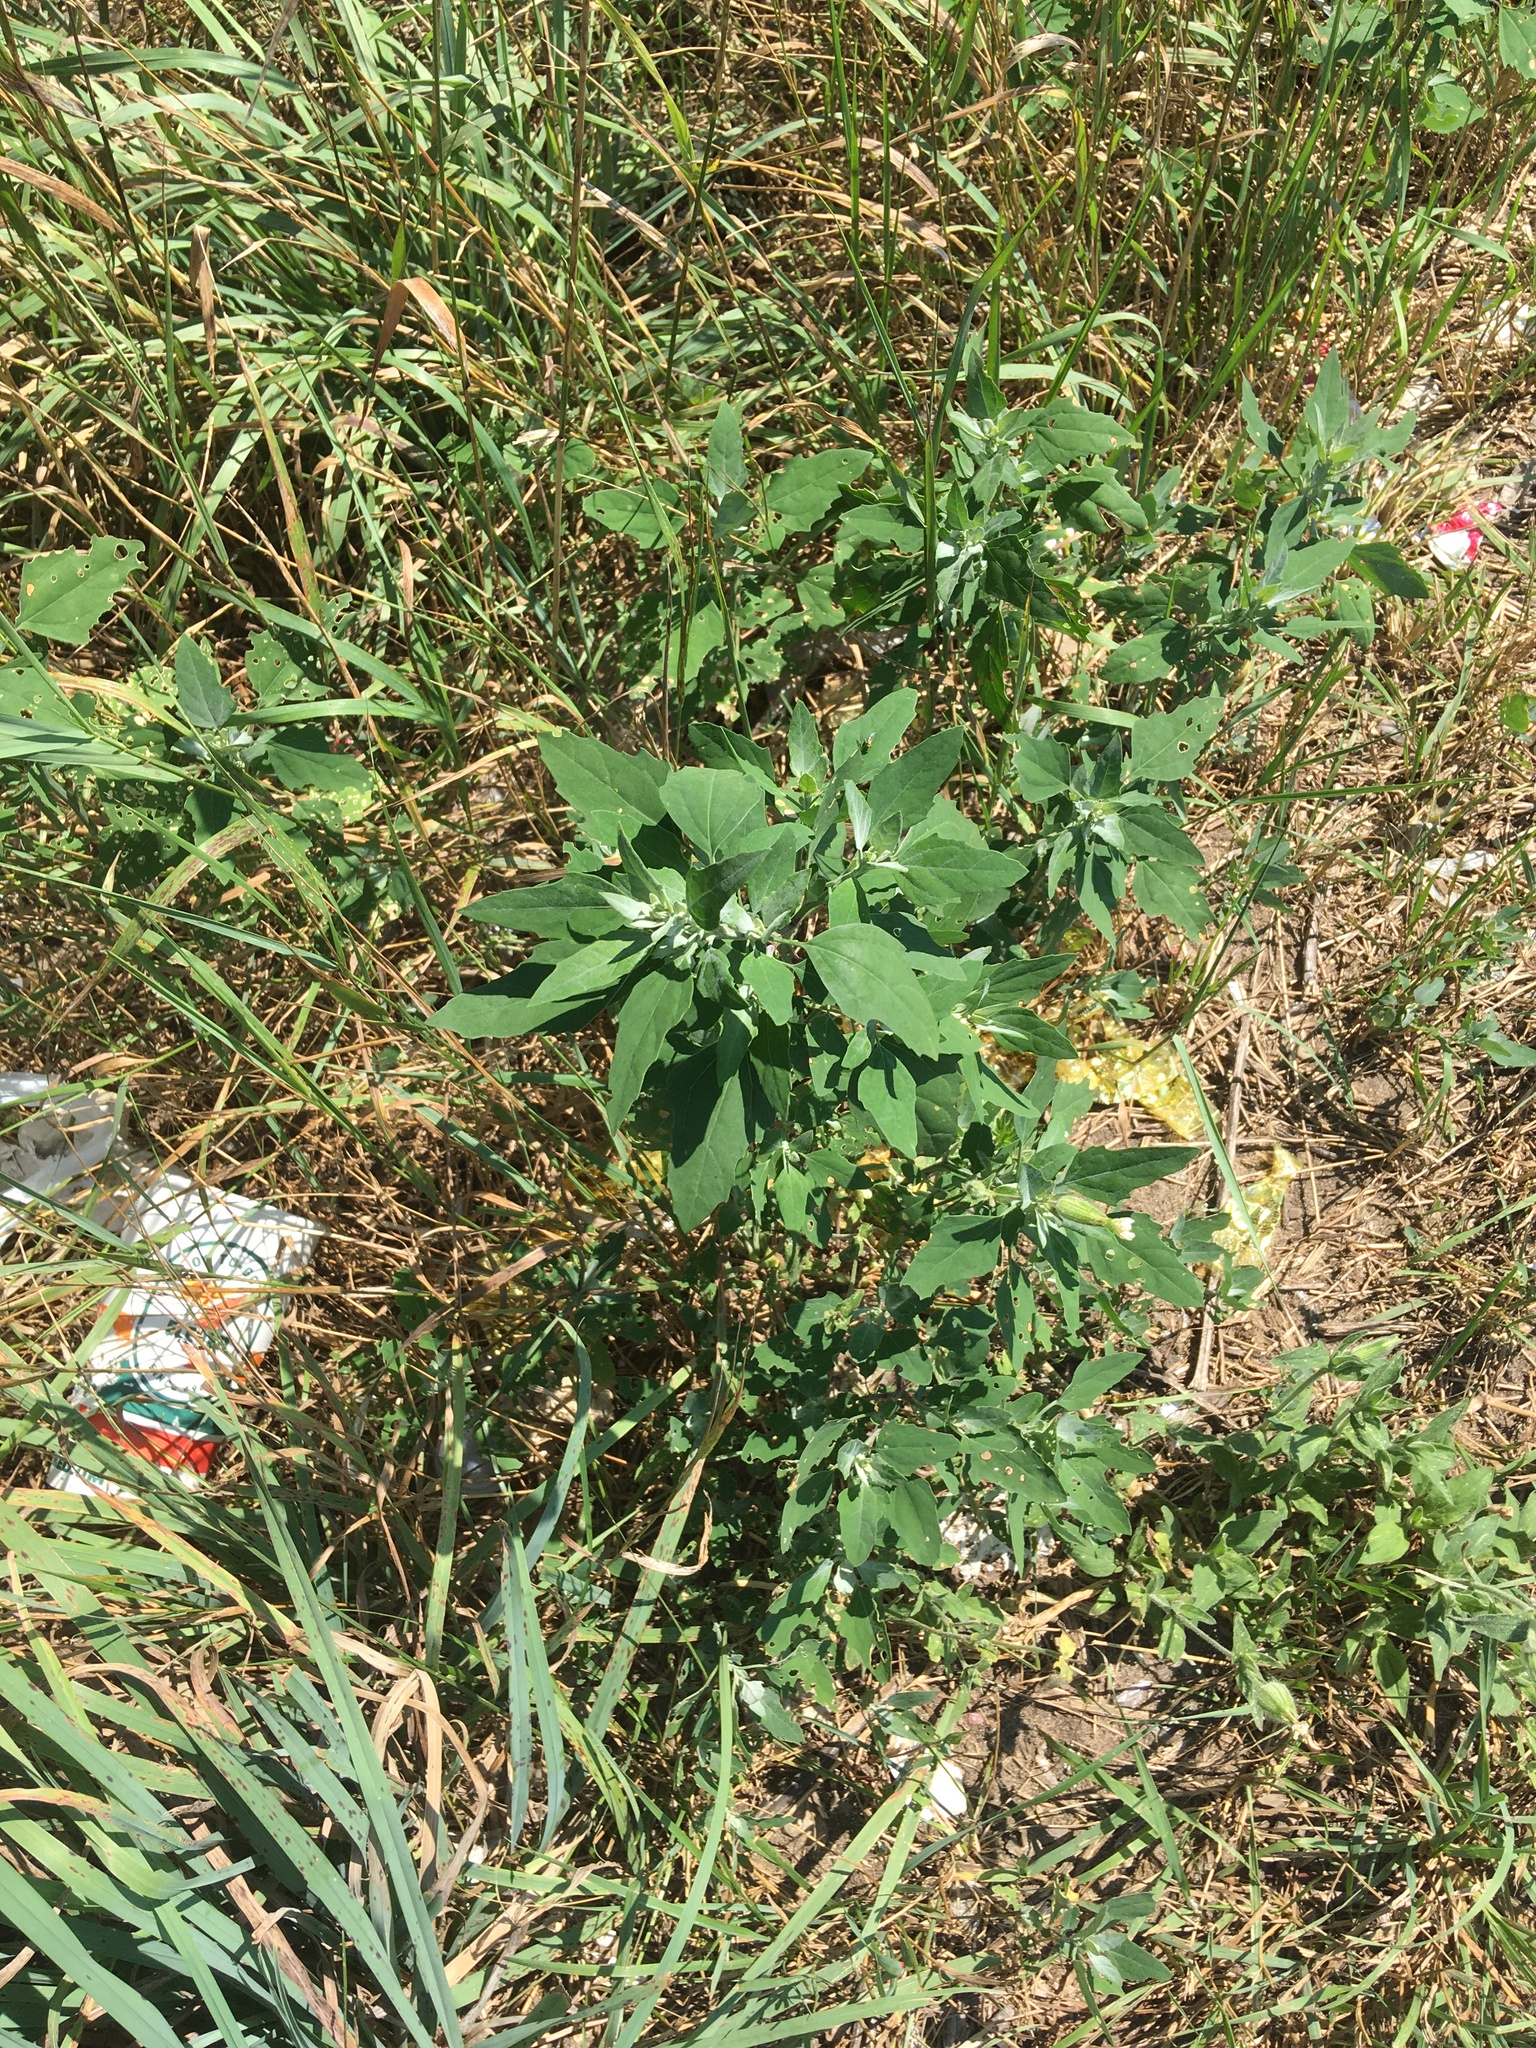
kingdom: Plantae
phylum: Tracheophyta
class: Magnoliopsida
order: Caryophyllales
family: Amaranthaceae
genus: Chenopodium
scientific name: Chenopodium album
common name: Fat-hen
